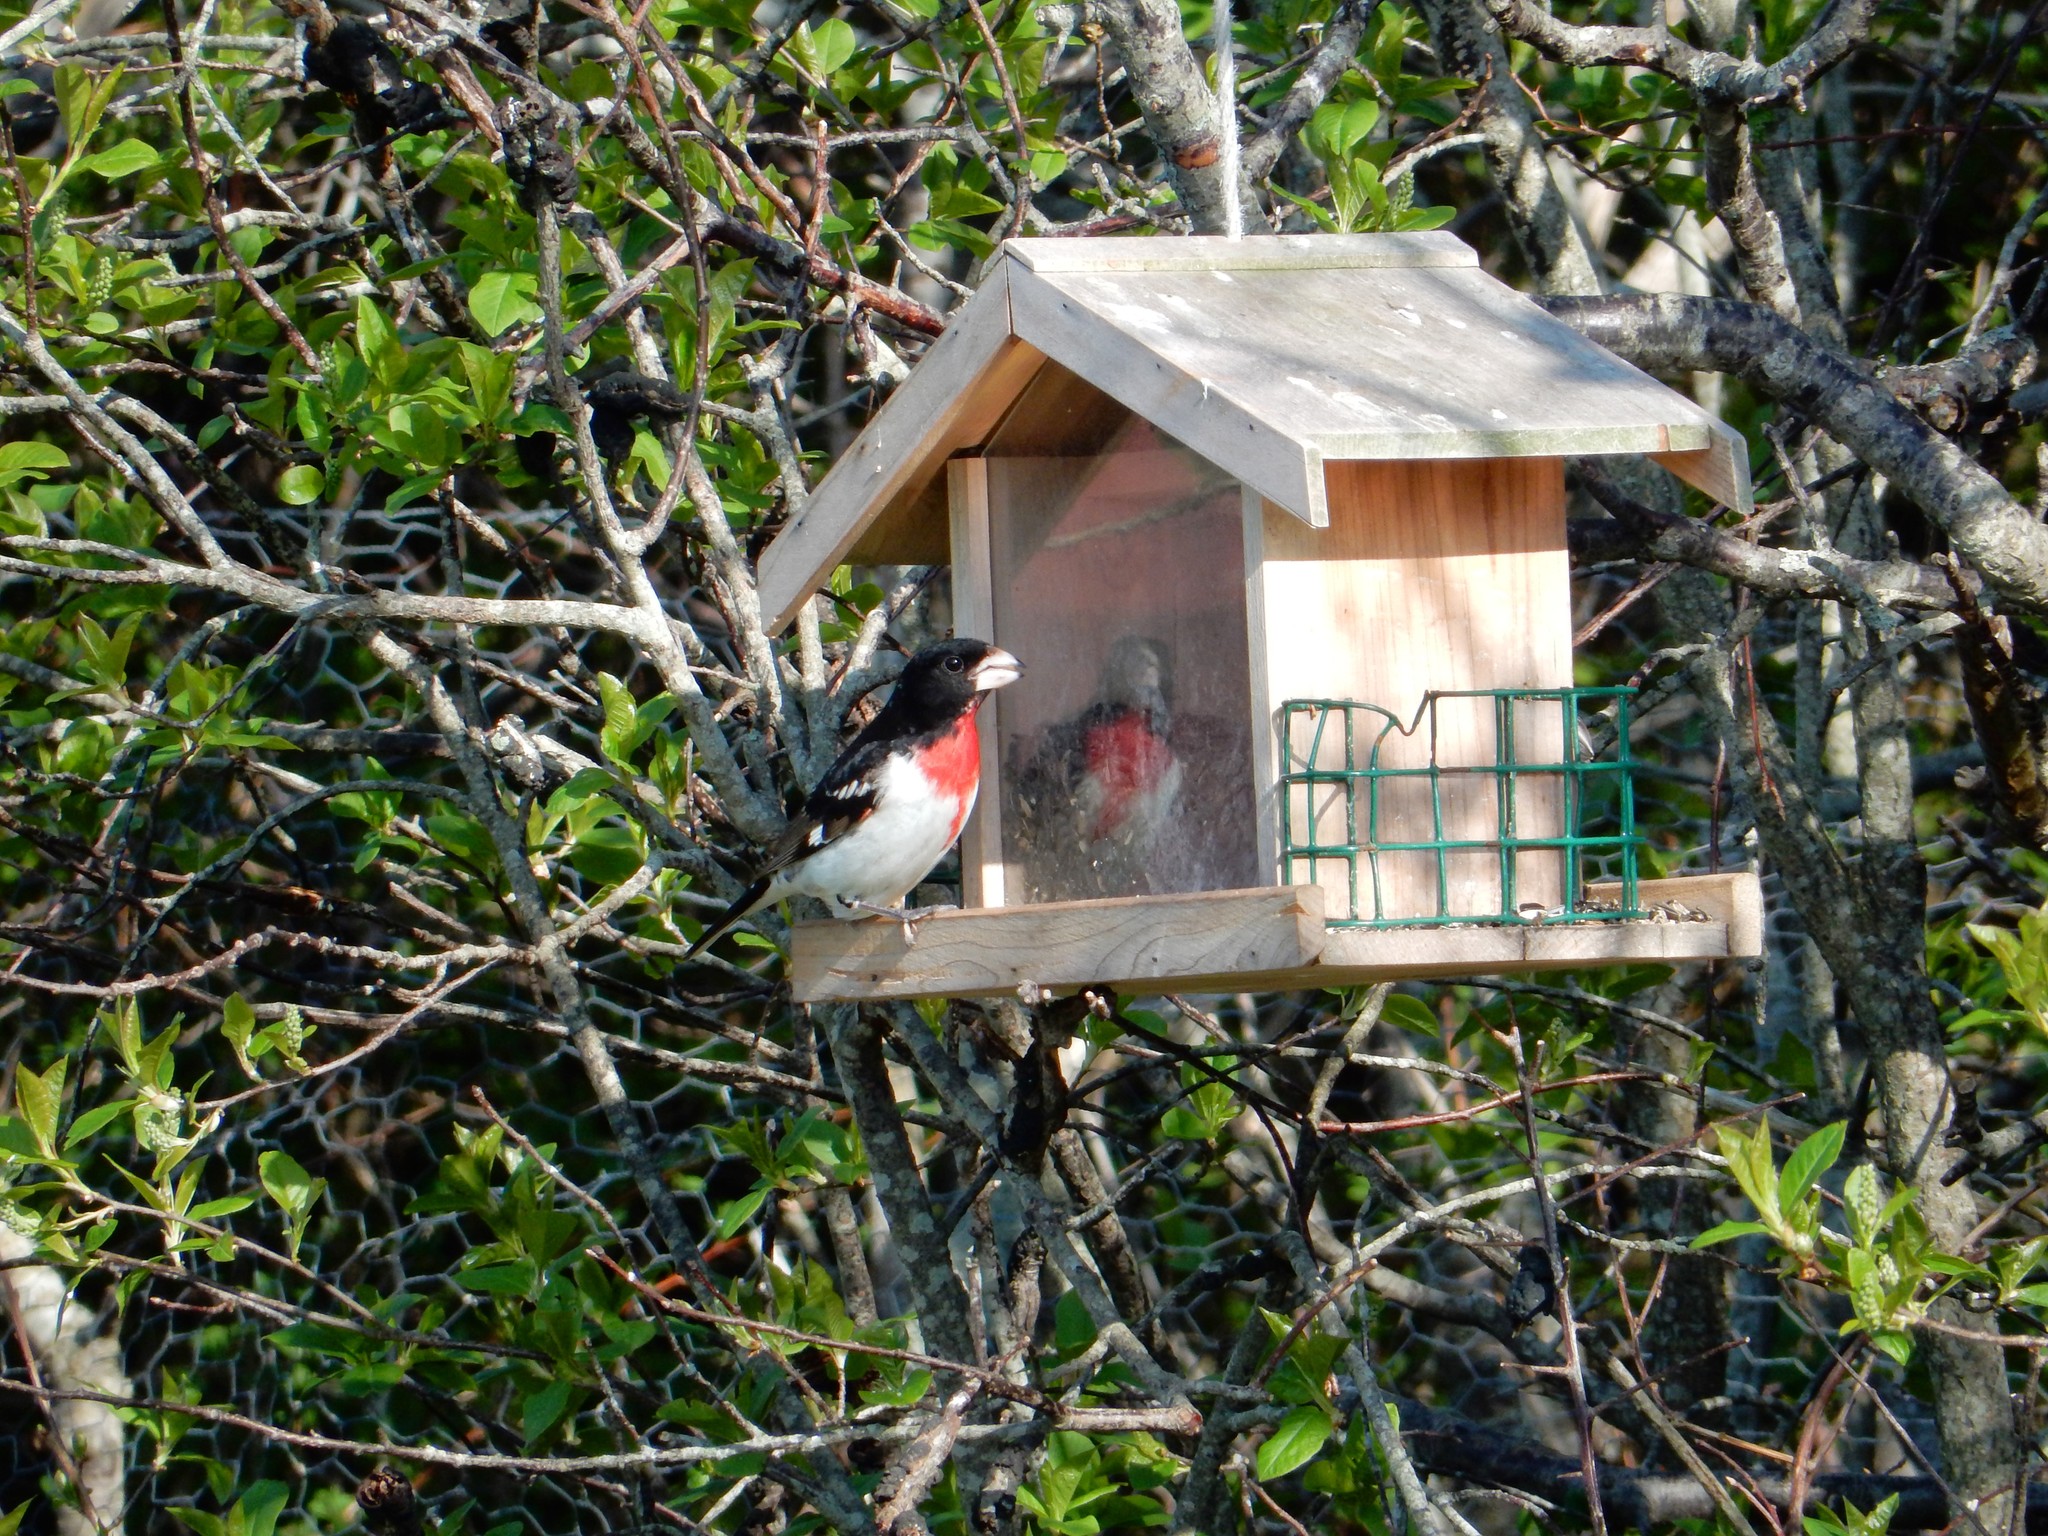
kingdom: Animalia
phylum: Chordata
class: Aves
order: Passeriformes
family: Cardinalidae
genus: Pheucticus
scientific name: Pheucticus ludovicianus
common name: Rose-breasted grosbeak
